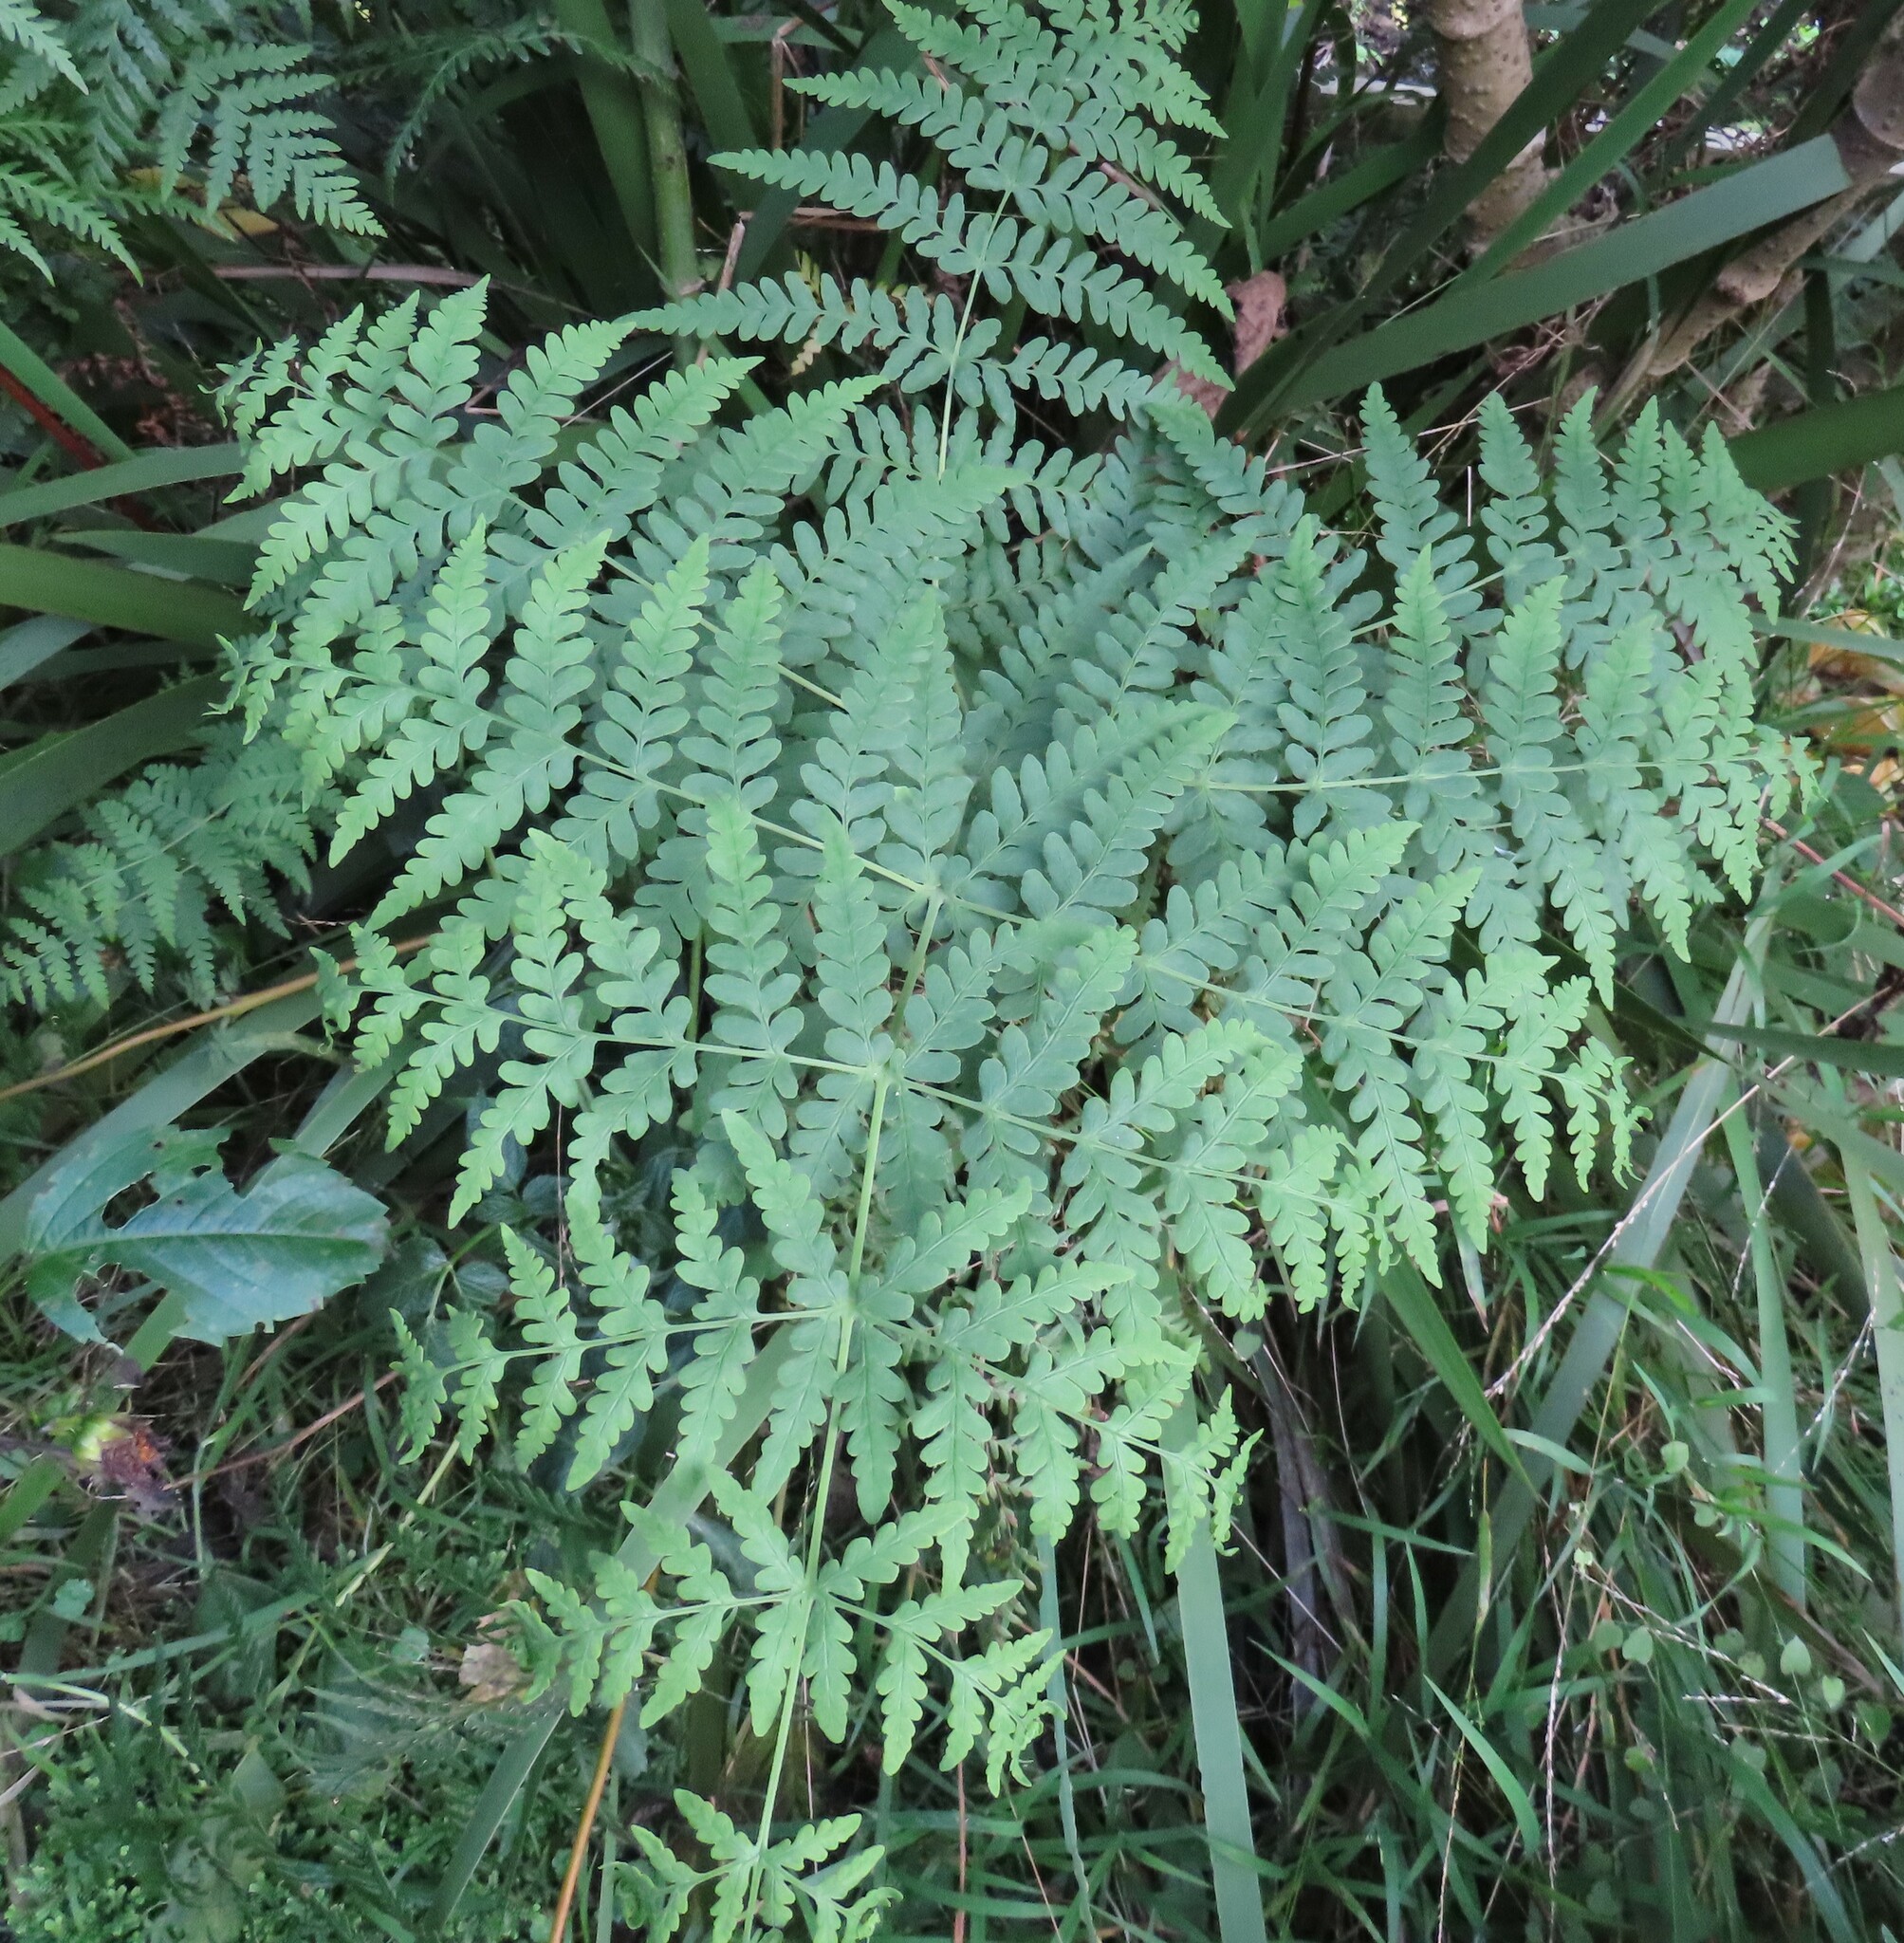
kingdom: Plantae
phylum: Tracheophyta
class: Polypodiopsida
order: Polypodiales
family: Dennstaedtiaceae
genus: Histiopteris
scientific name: Histiopteris incisa
